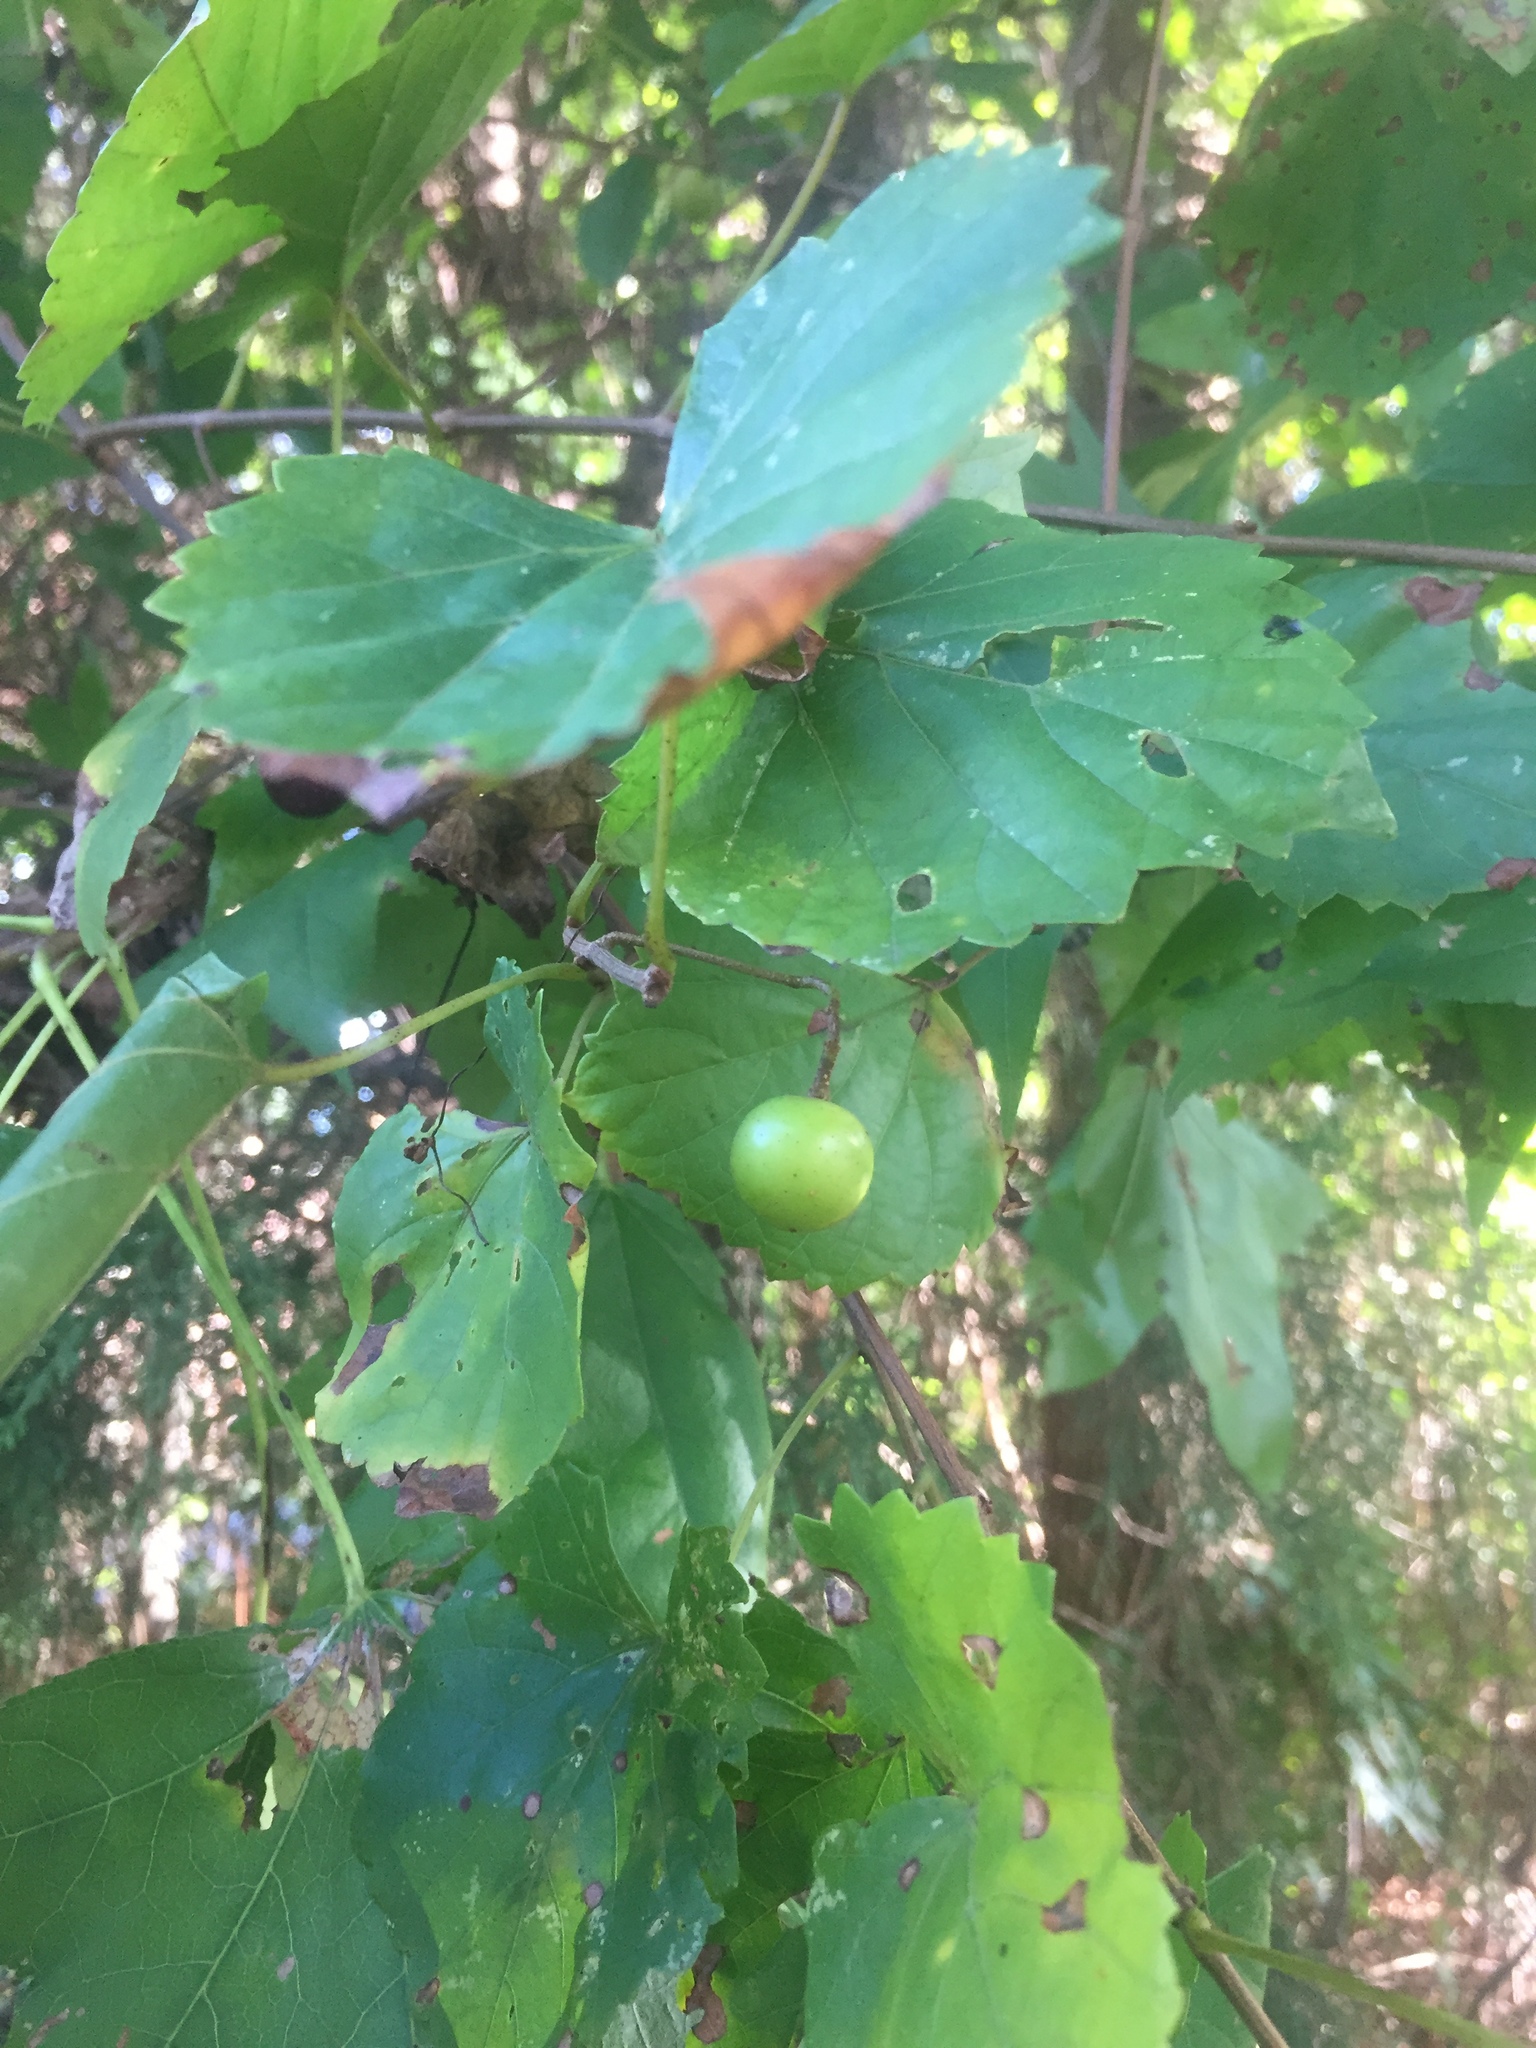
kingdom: Plantae
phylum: Tracheophyta
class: Magnoliopsida
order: Vitales
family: Vitaceae
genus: Vitis
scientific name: Vitis rotundifolia
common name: Muscadine grape
